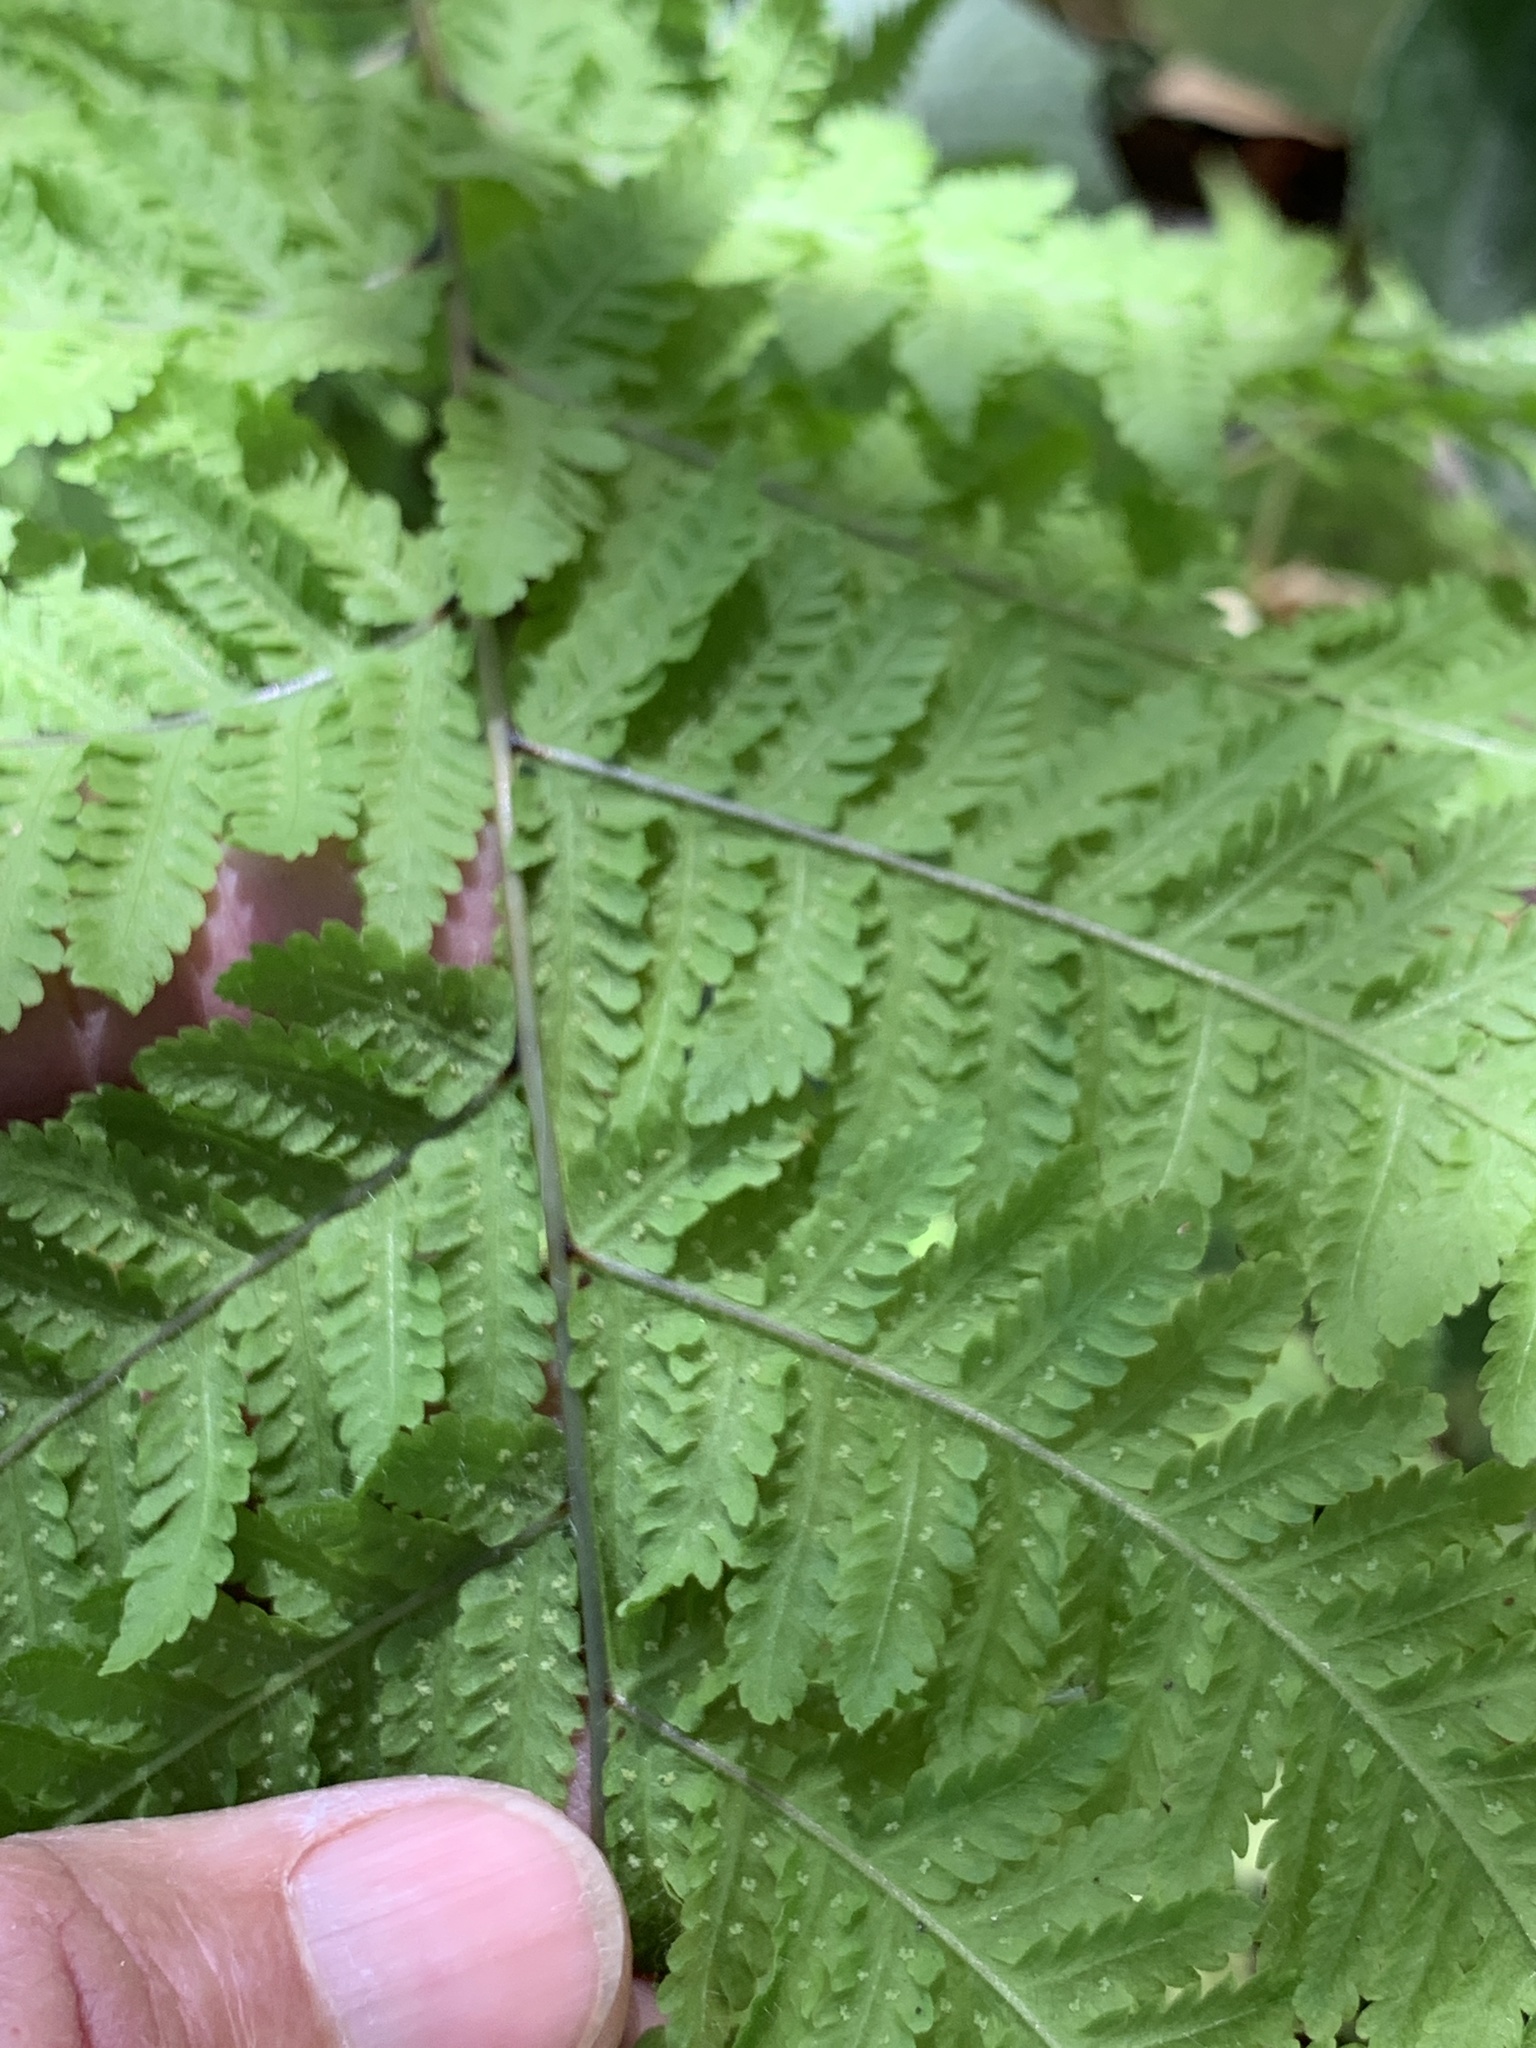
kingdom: Plantae
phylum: Tracheophyta
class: Polypodiopsida
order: Polypodiales
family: Thelypteridaceae
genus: Macrothelypteris
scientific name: Macrothelypteris torresiana
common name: Swordfern
